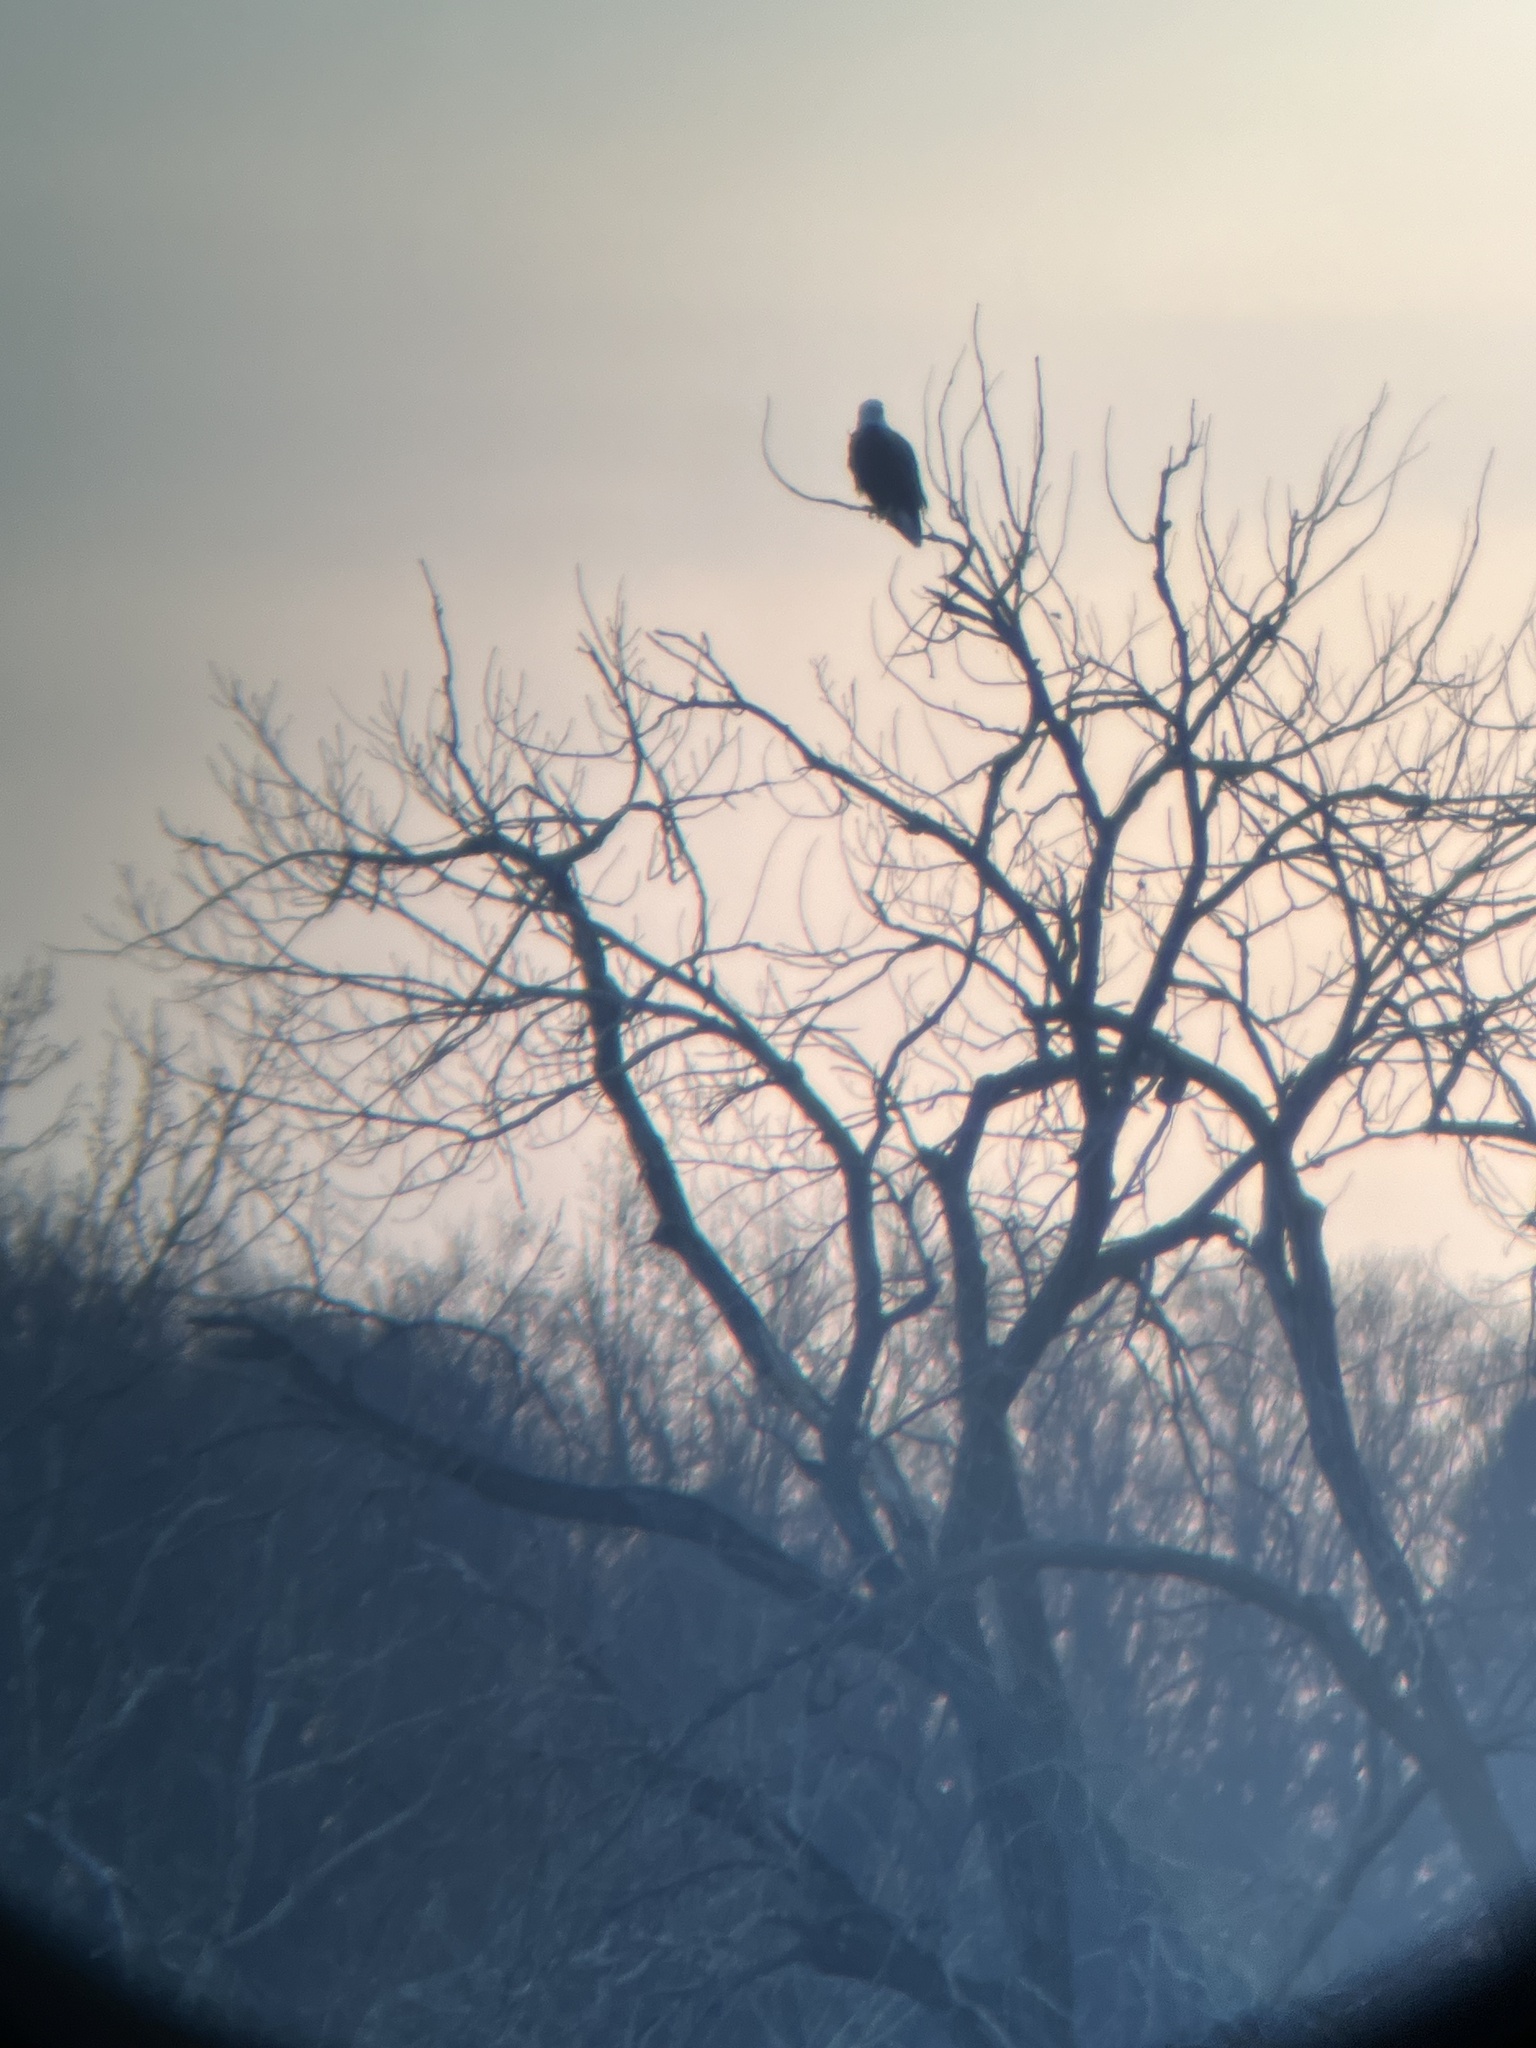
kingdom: Animalia
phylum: Chordata
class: Aves
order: Accipitriformes
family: Accipitridae
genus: Haliaeetus
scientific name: Haliaeetus leucocephalus
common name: Bald eagle
